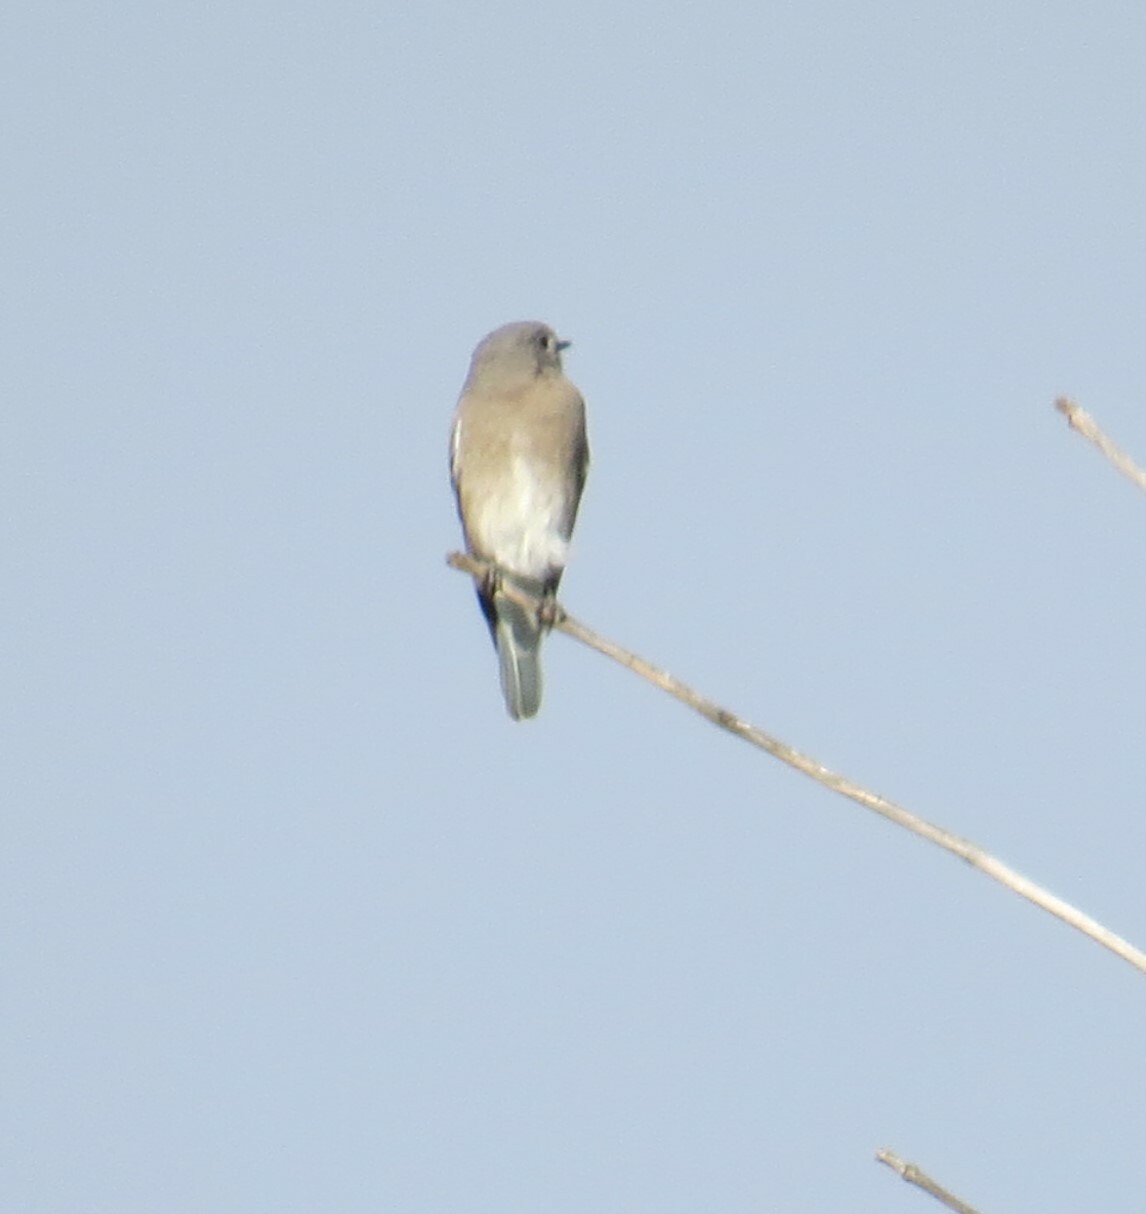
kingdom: Animalia
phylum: Chordata
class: Aves
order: Passeriformes
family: Turdidae
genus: Sialia
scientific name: Sialia currucoides
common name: Mountain bluebird
